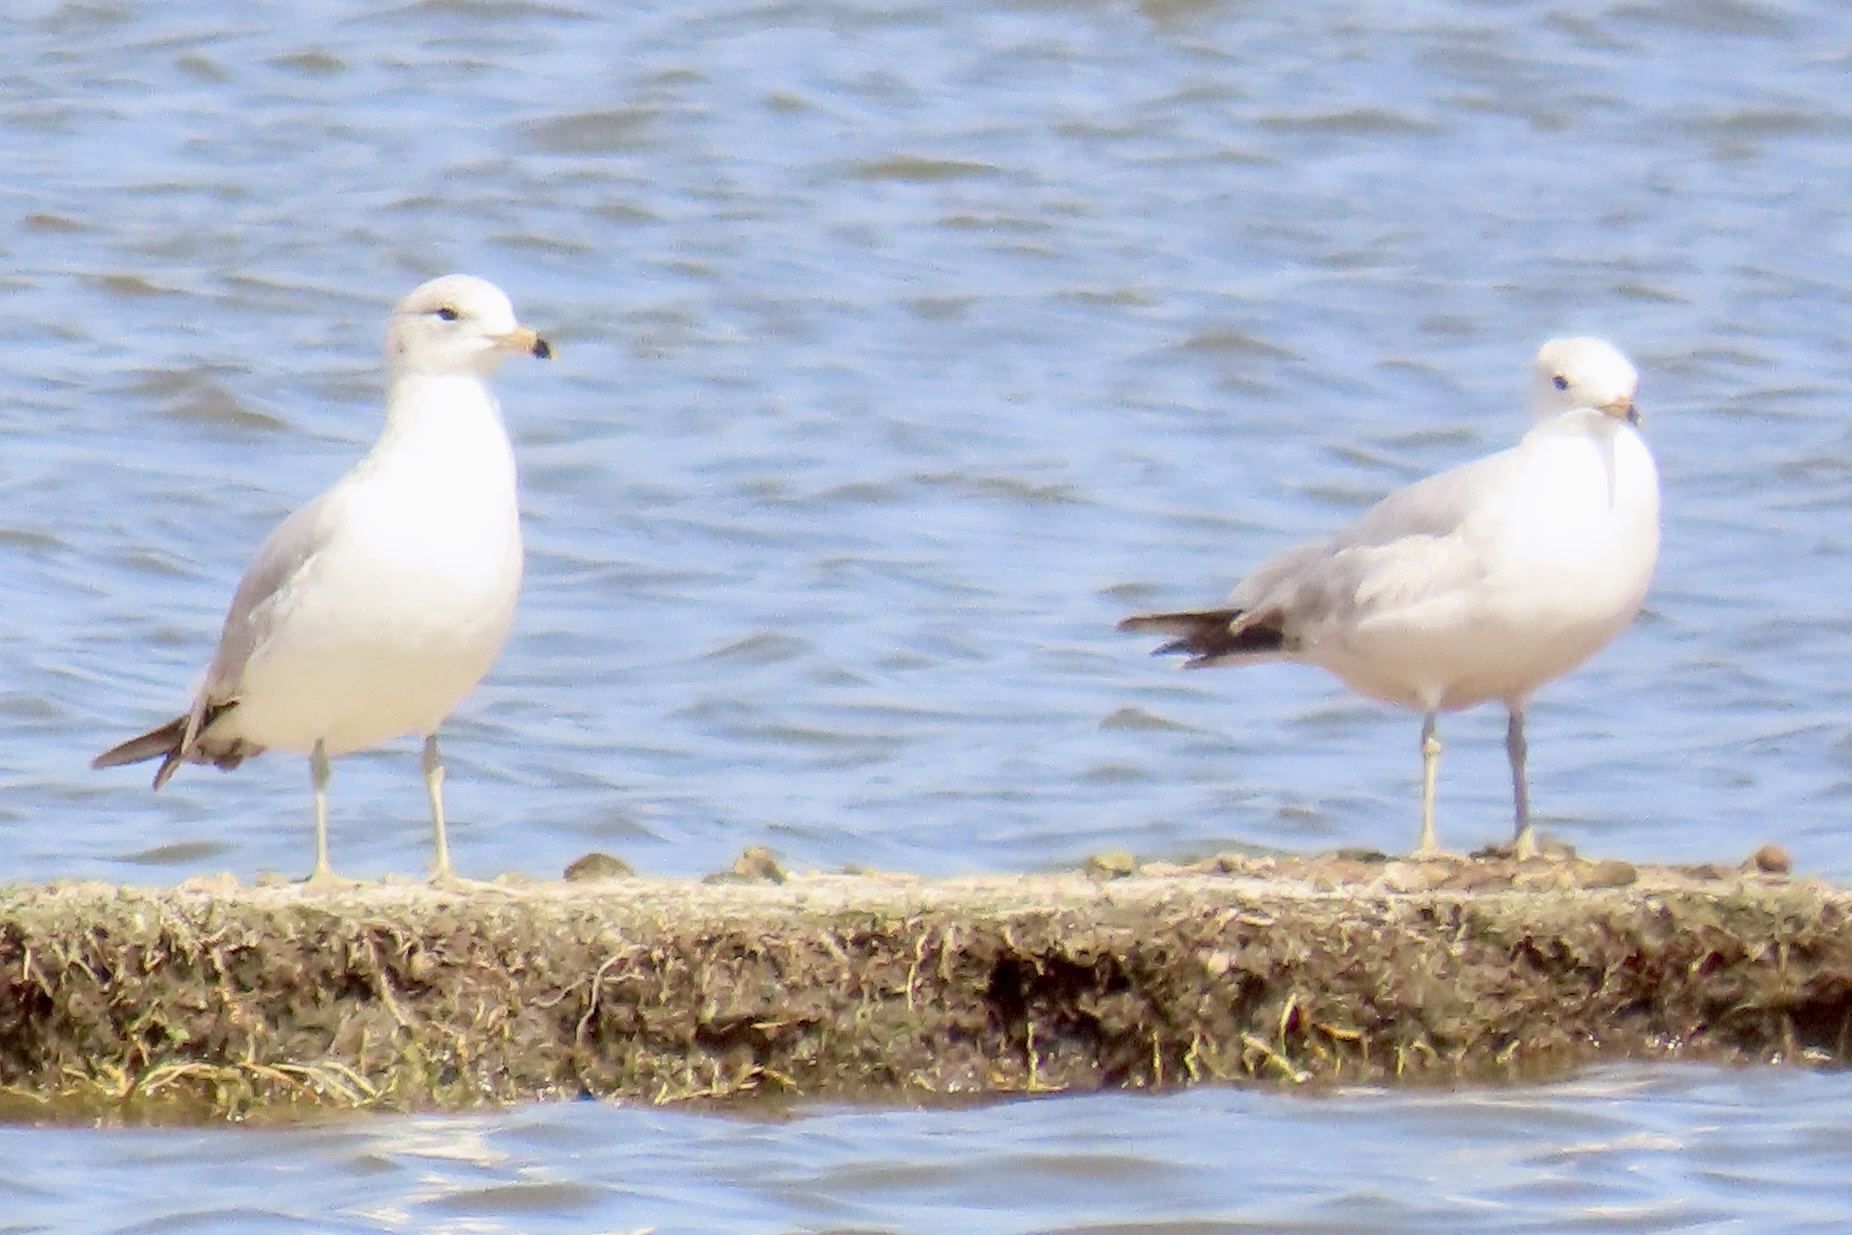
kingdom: Animalia
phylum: Chordata
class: Aves
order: Charadriiformes
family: Laridae
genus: Larus
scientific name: Larus delawarensis
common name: Ring-billed gull
